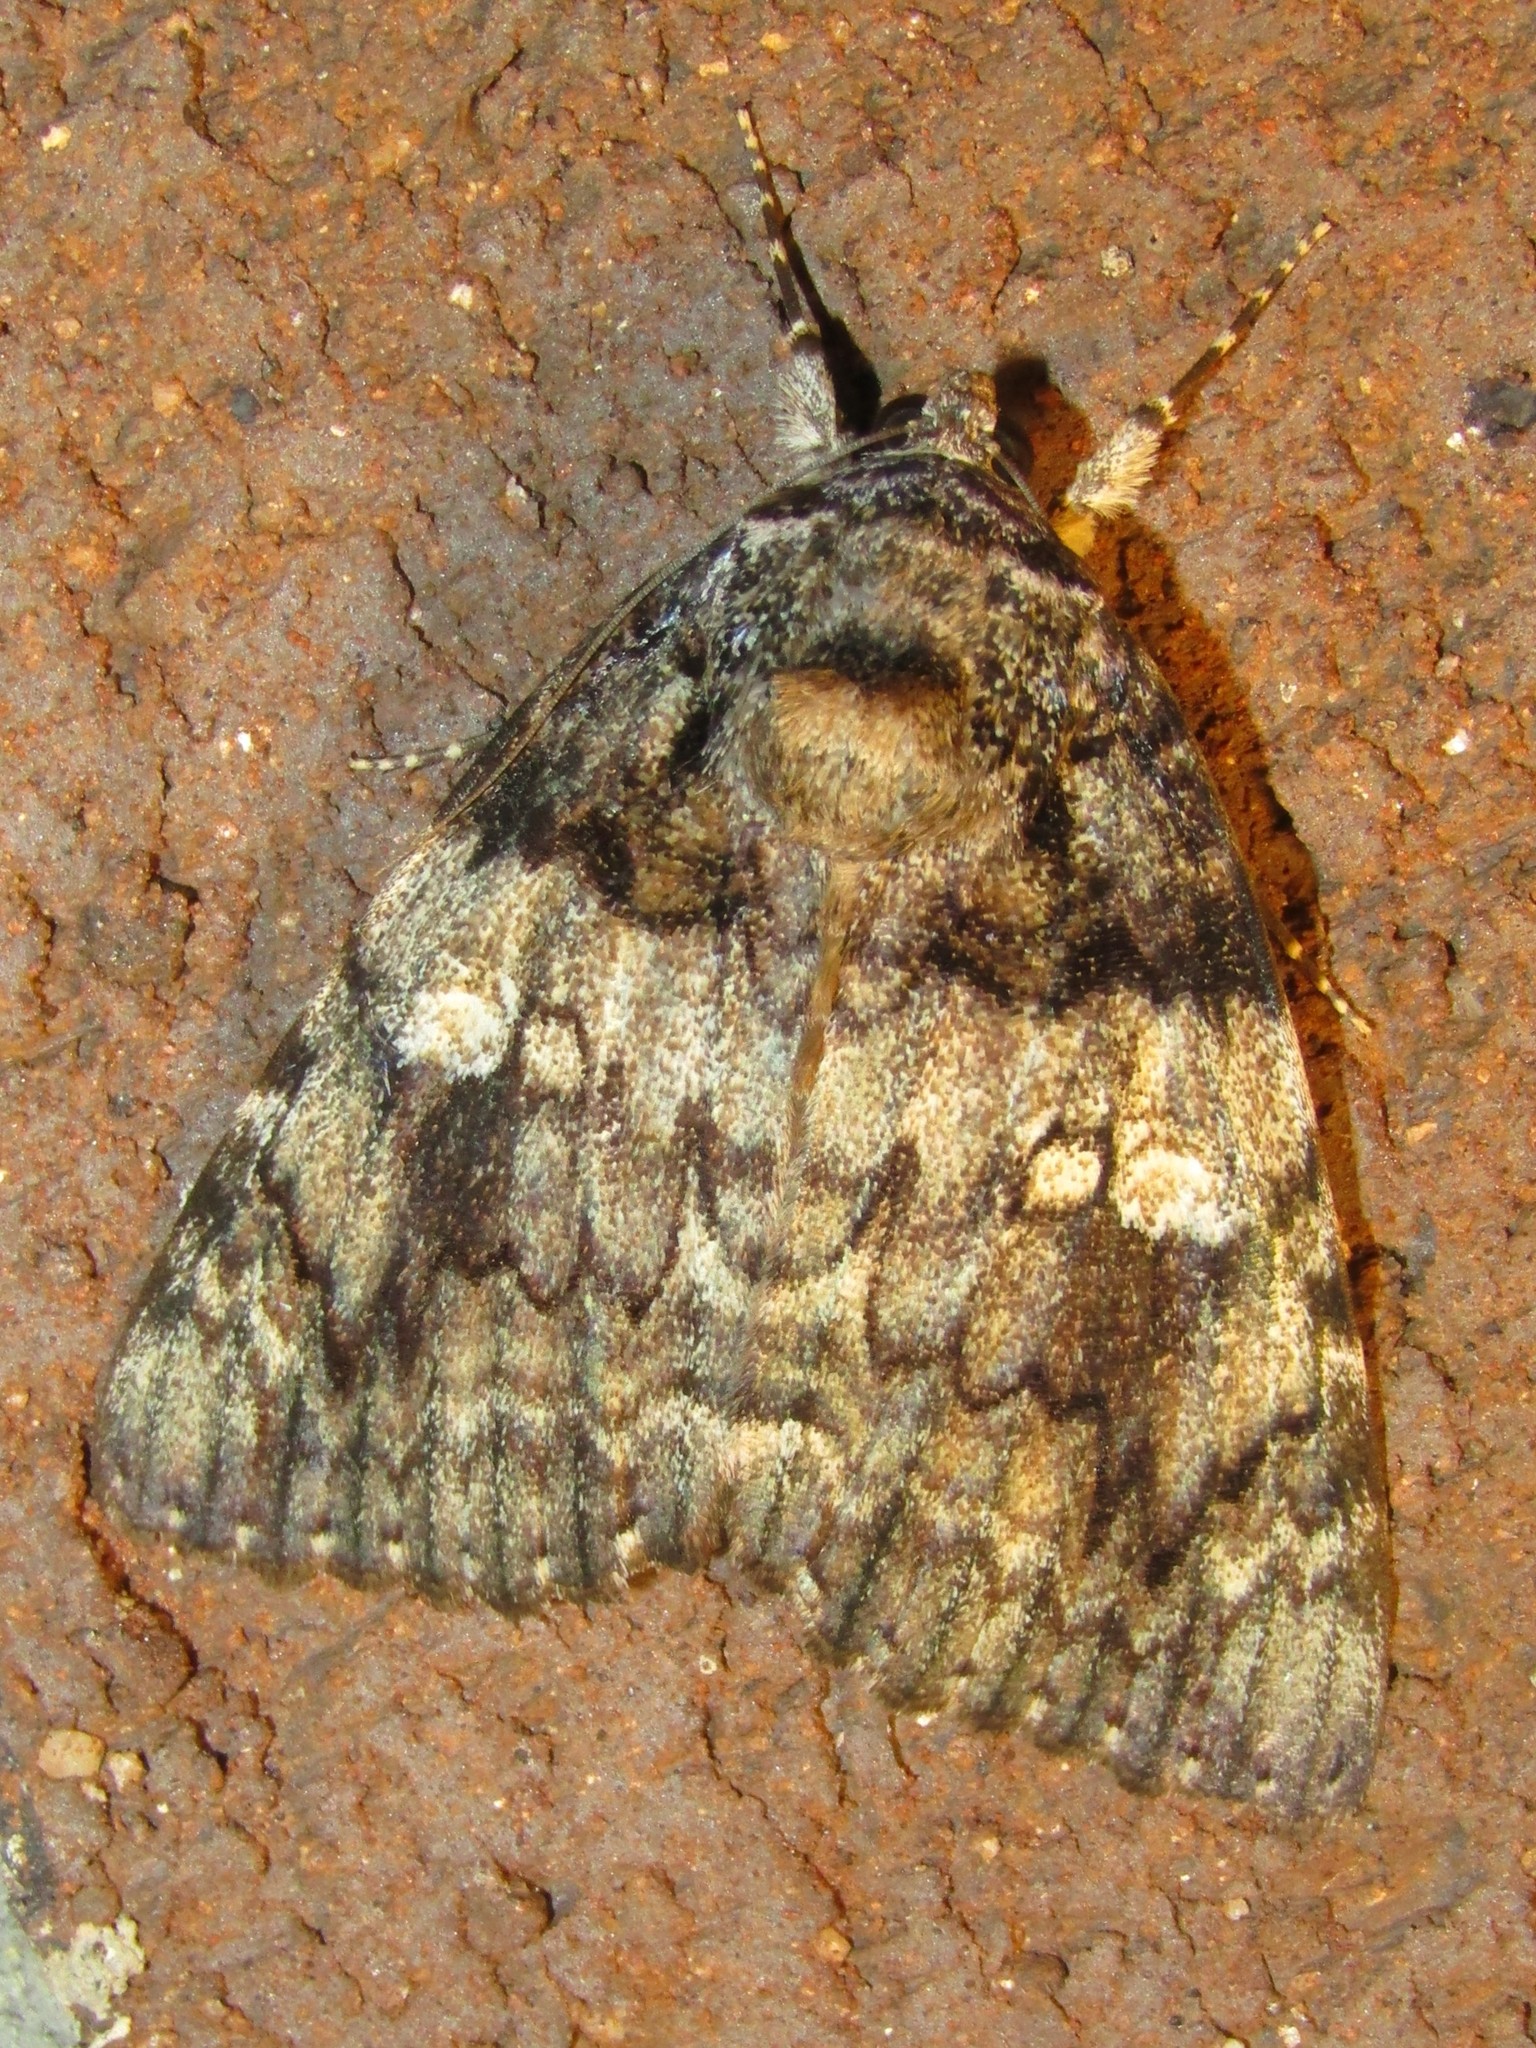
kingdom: Animalia
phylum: Arthropoda
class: Insecta
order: Lepidoptera
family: Erebidae
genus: Catocala
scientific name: Catocala ilia
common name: Ilia underwing
